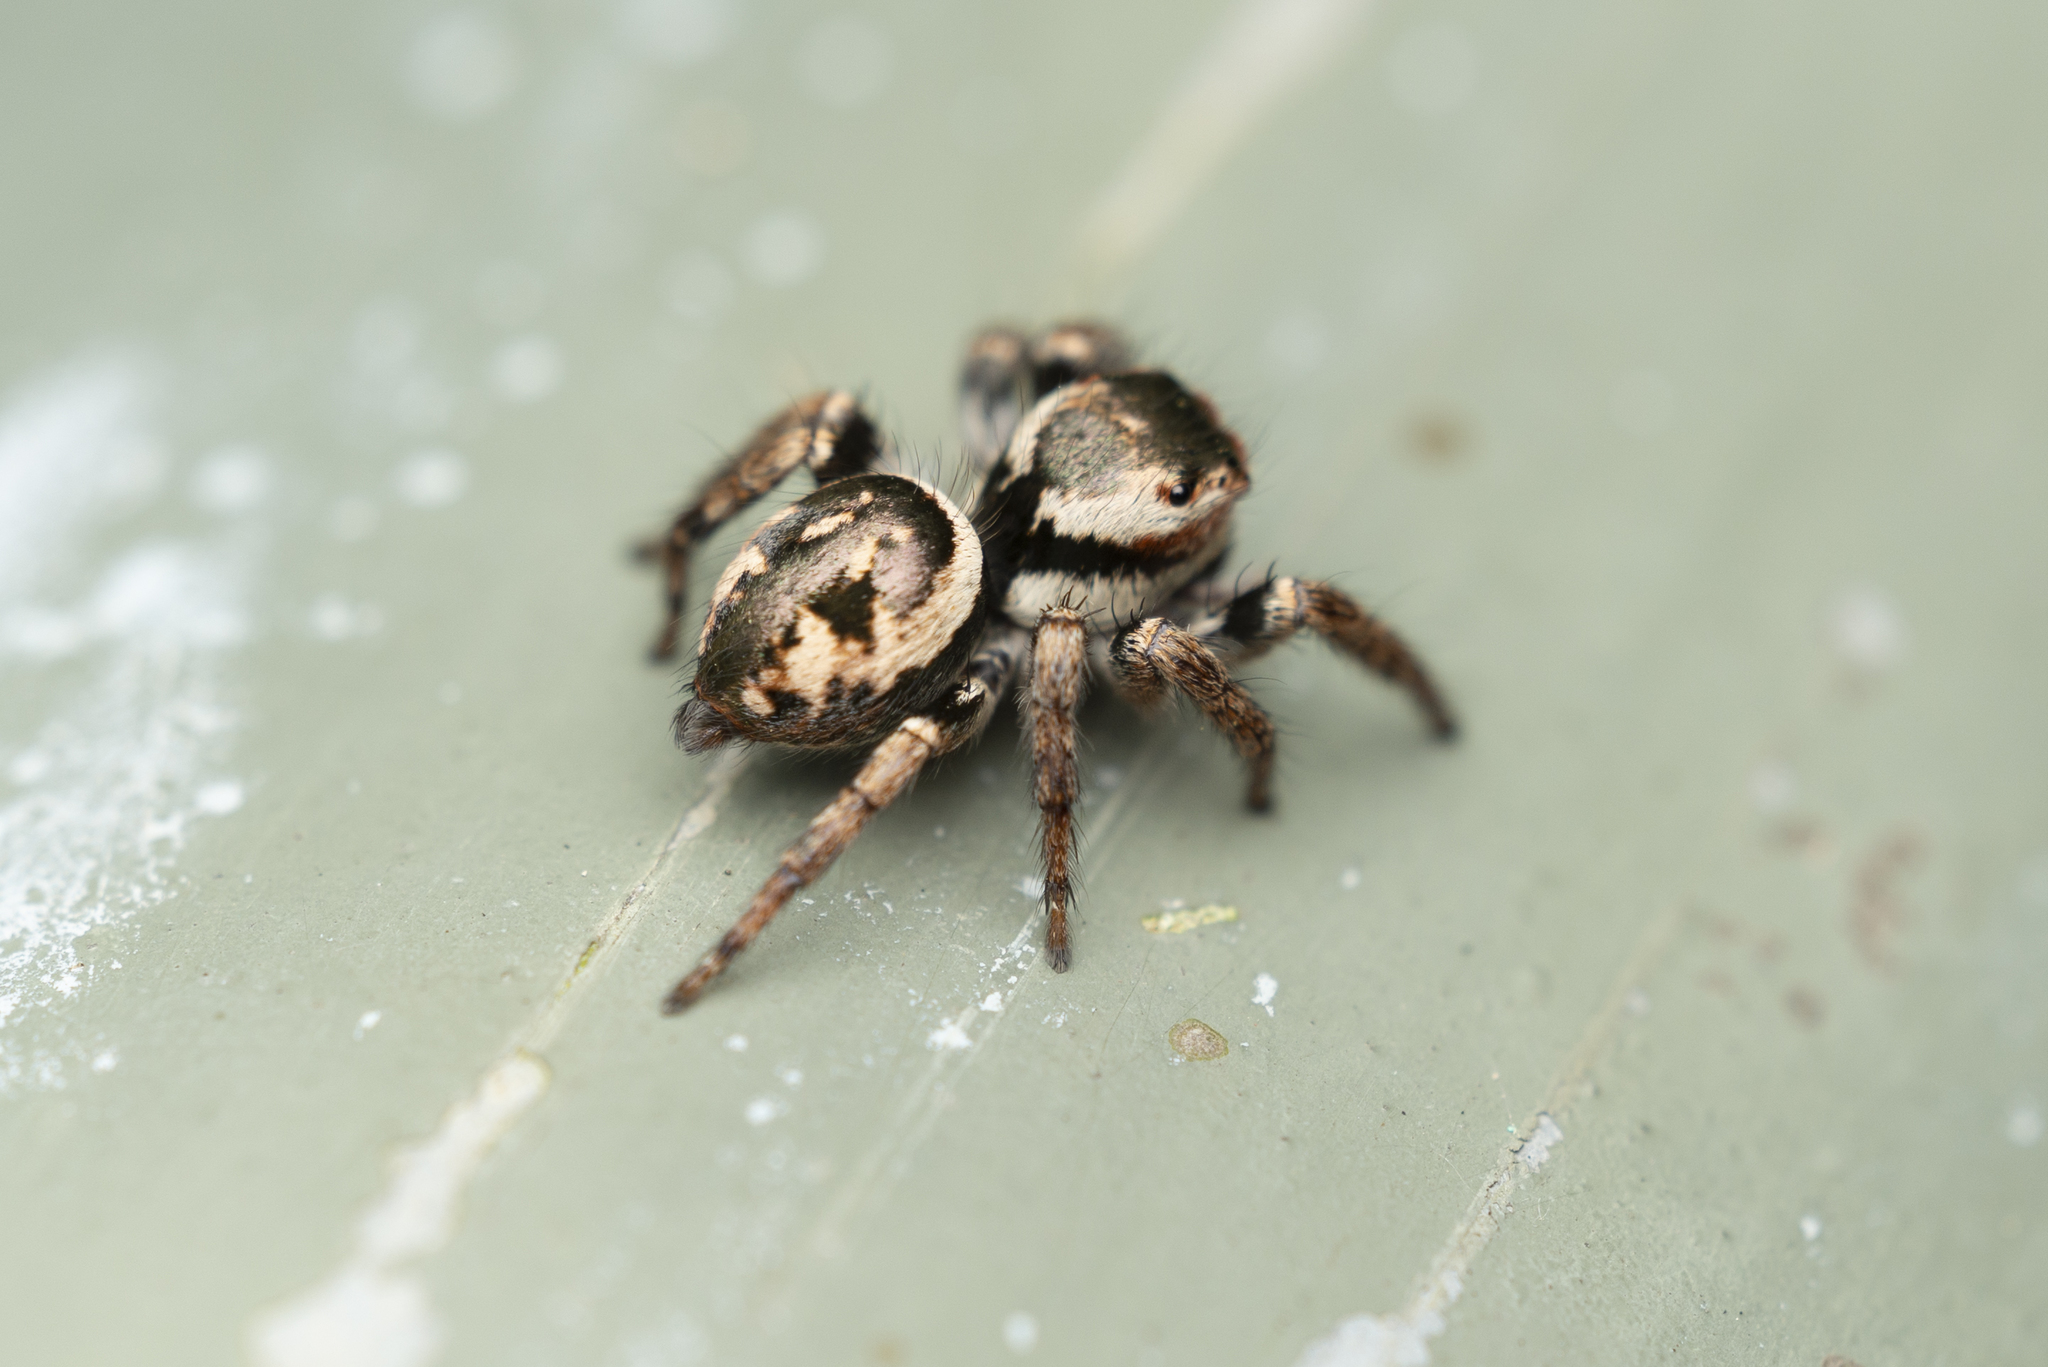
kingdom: Animalia
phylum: Arthropoda
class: Arachnida
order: Araneae
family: Salticidae
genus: Carrhotus
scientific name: Carrhotus viduus
